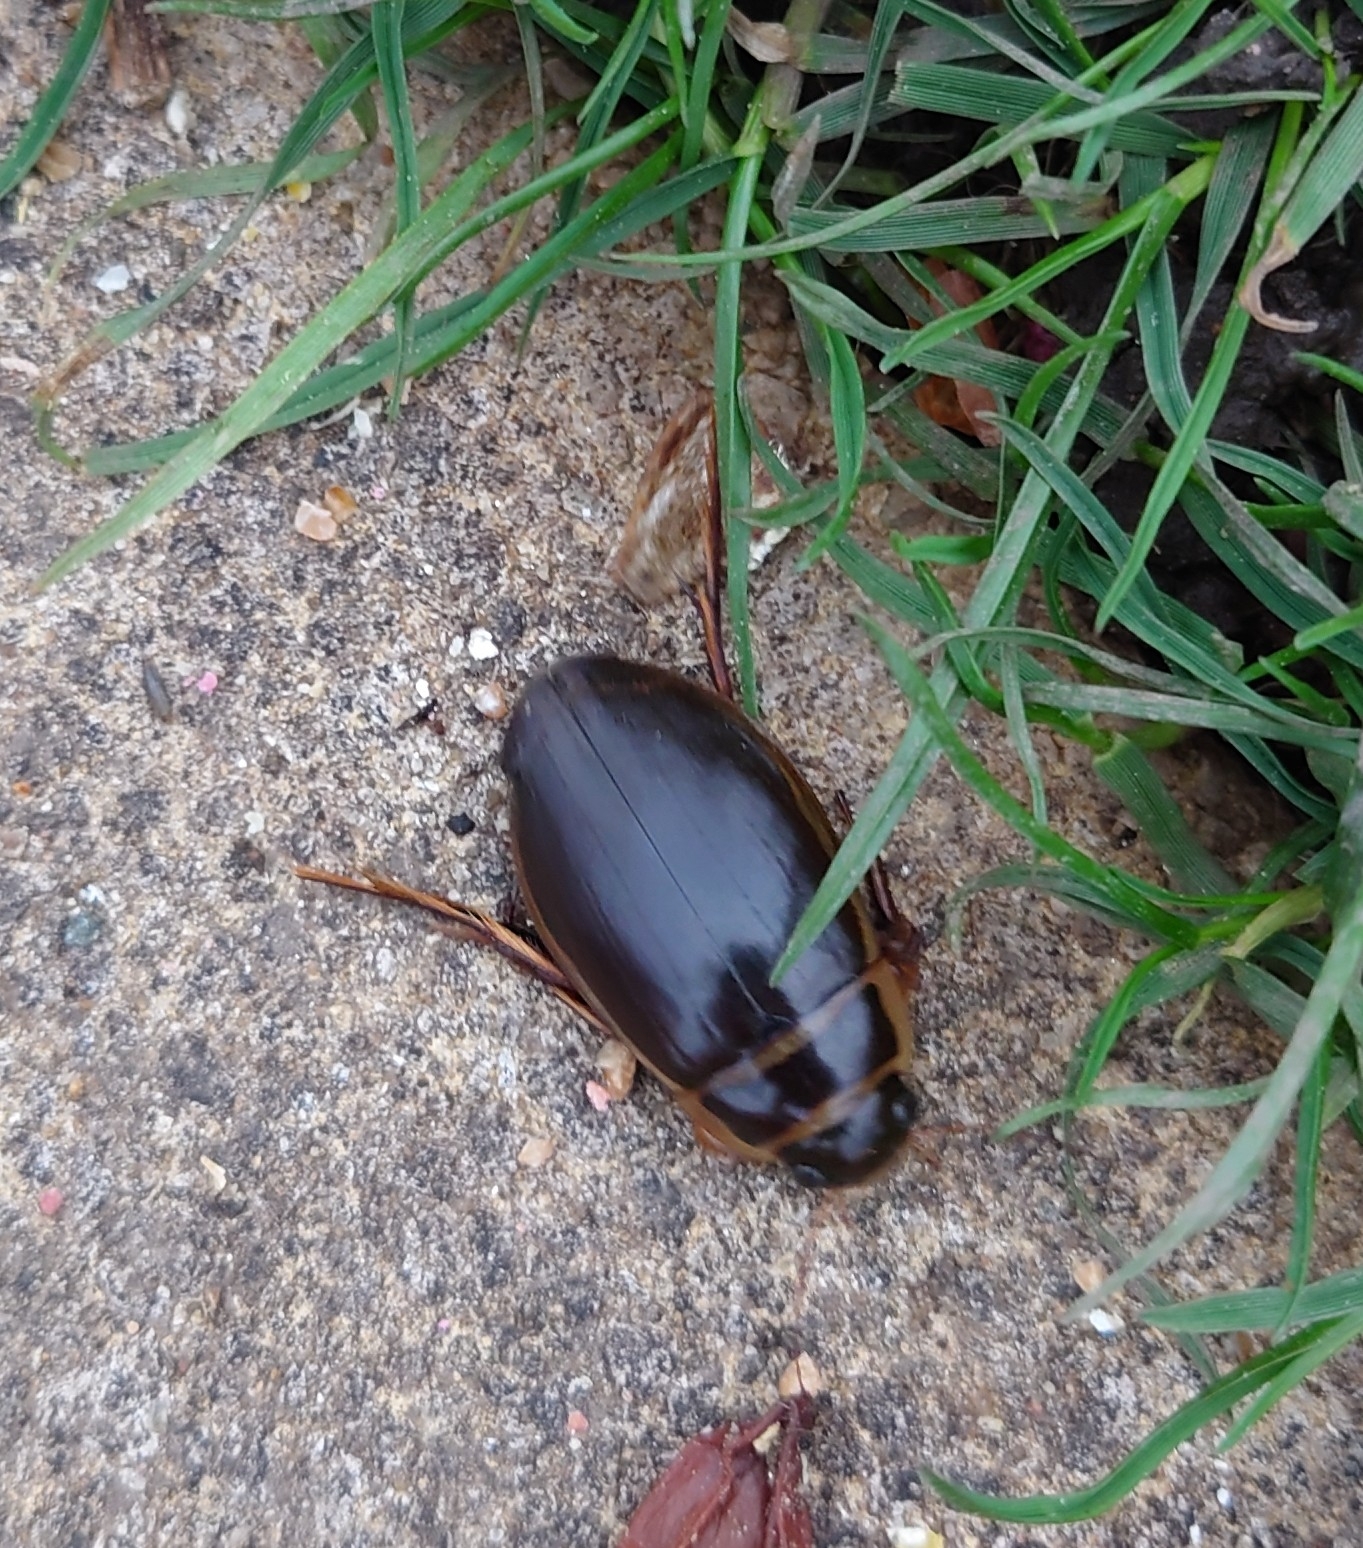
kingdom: Animalia
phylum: Arthropoda
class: Insecta
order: Coleoptera
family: Dytiscidae
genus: Dytiscus
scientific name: Dytiscus marginalis
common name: Great water beetle
